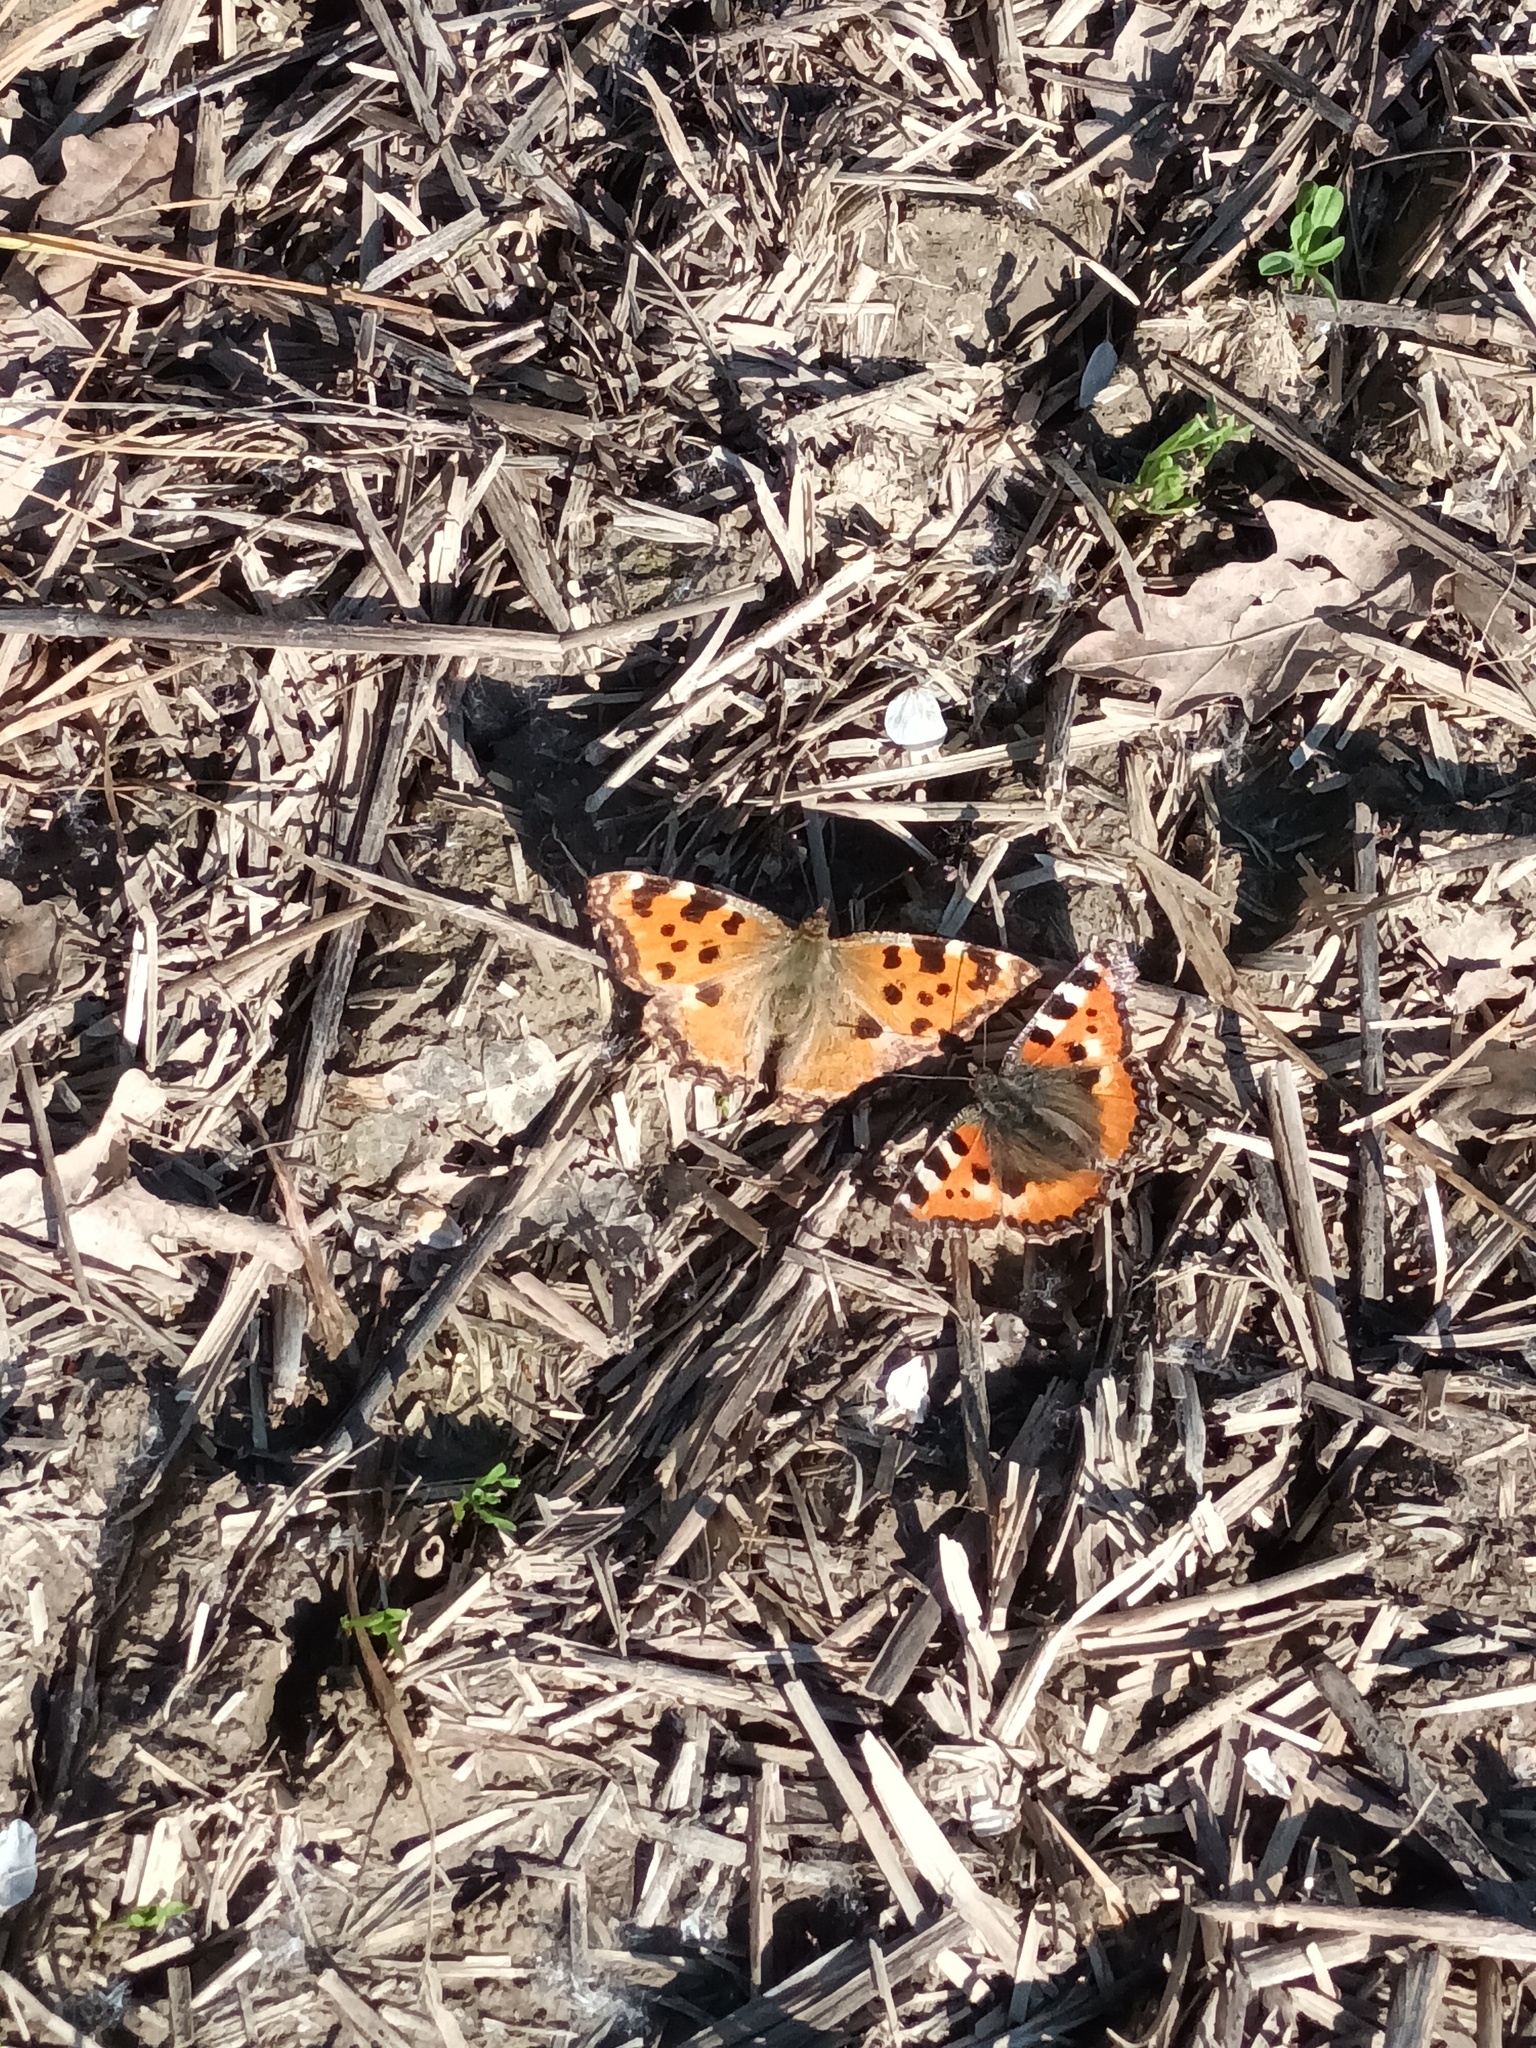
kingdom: Animalia
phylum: Arthropoda
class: Insecta
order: Lepidoptera
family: Nymphalidae
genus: Nymphalis
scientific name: Nymphalis polychloros
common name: Large tortoiseshell
